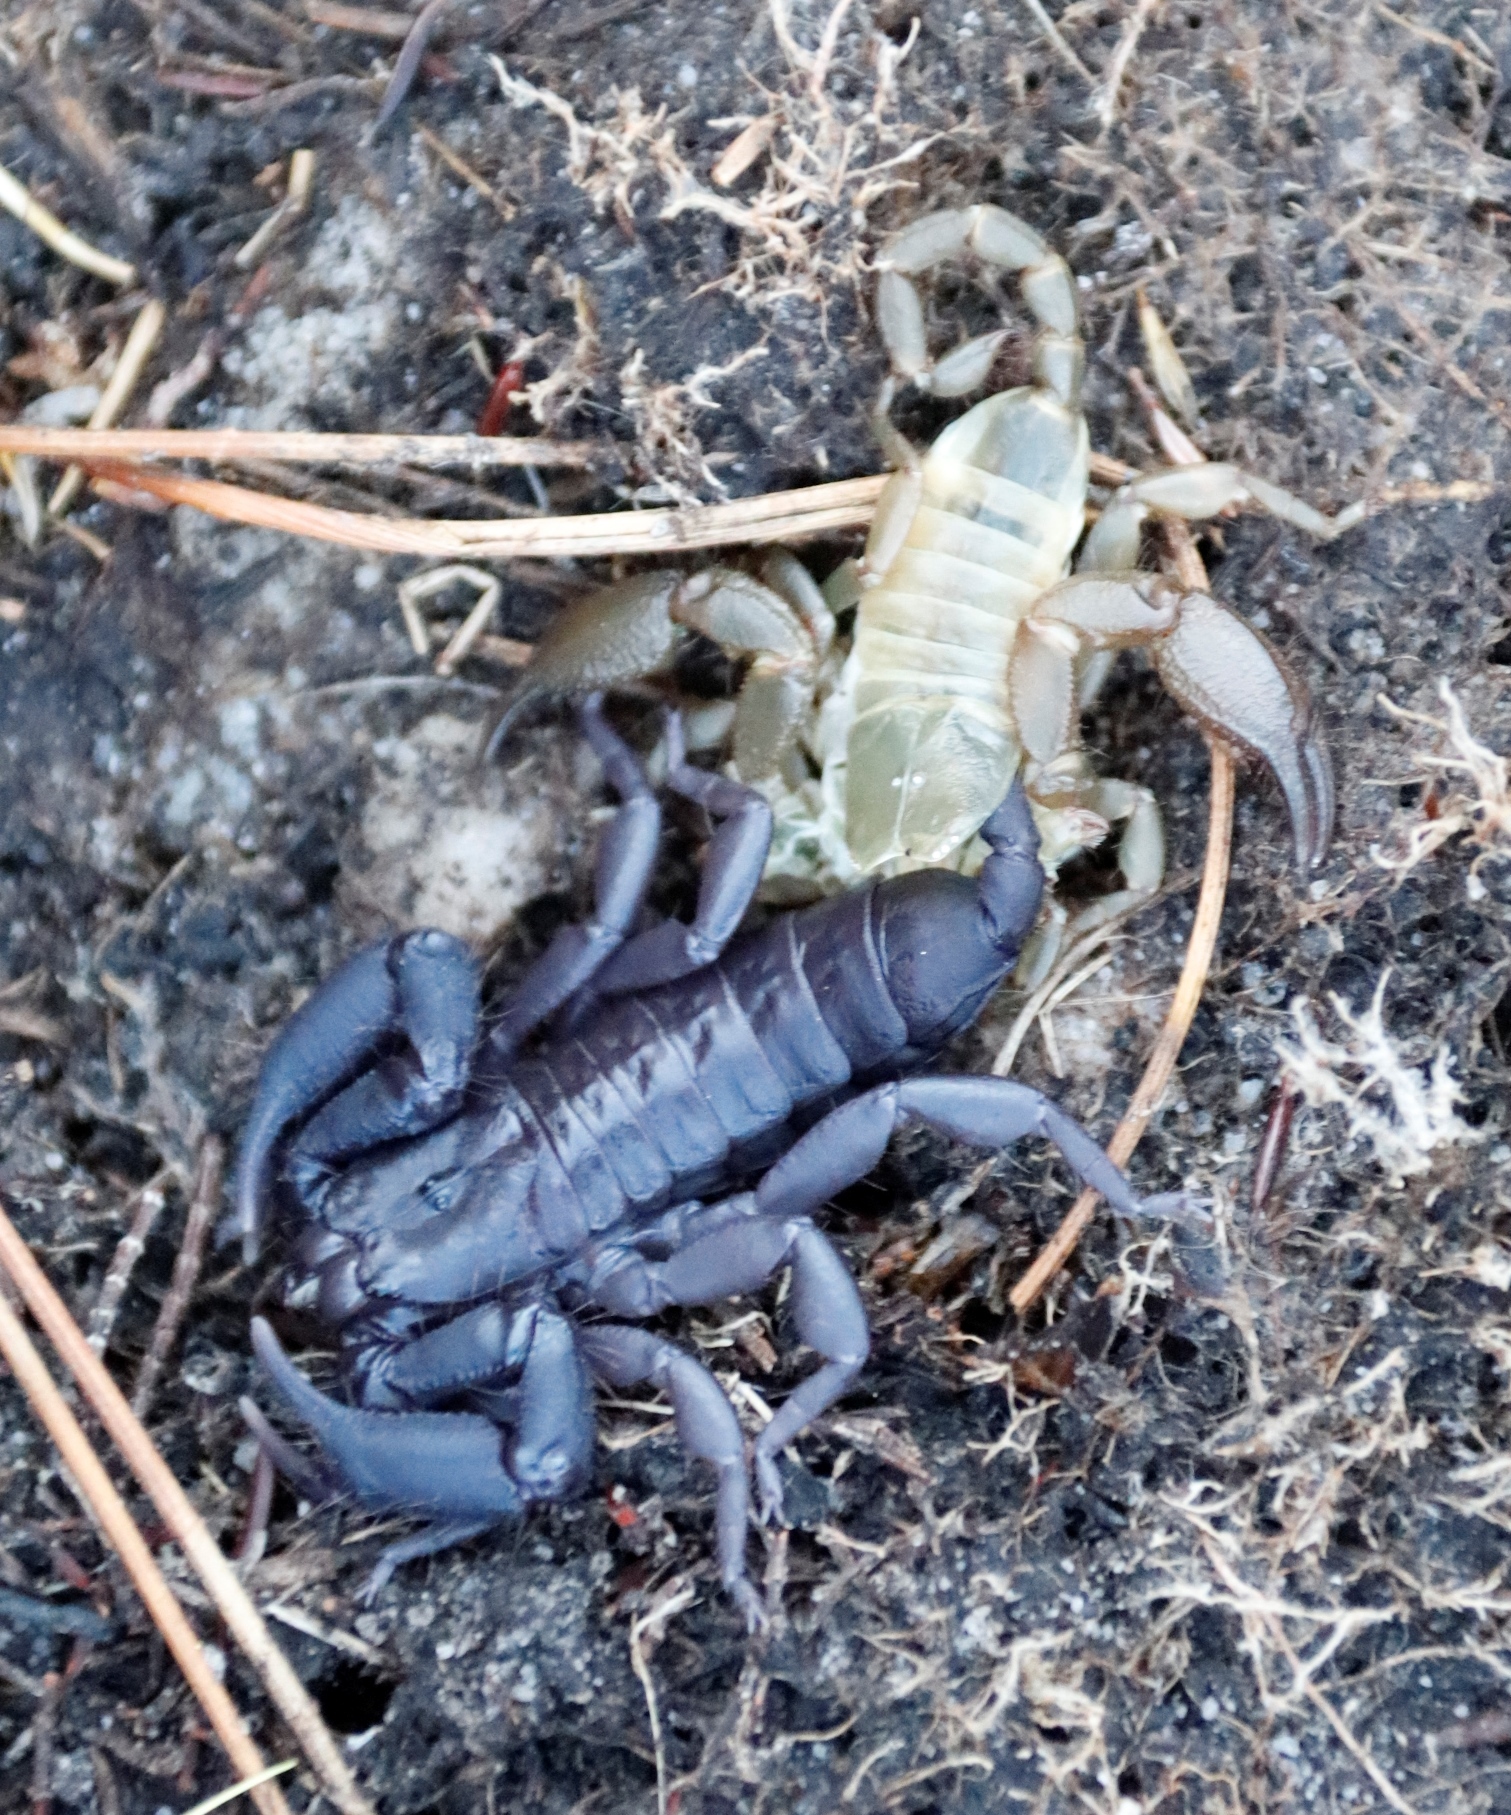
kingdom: Animalia
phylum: Arthropoda
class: Arachnida
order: Scorpiones
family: Hormuridae
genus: Opisthacanthus
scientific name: Opisthacanthus capensis
